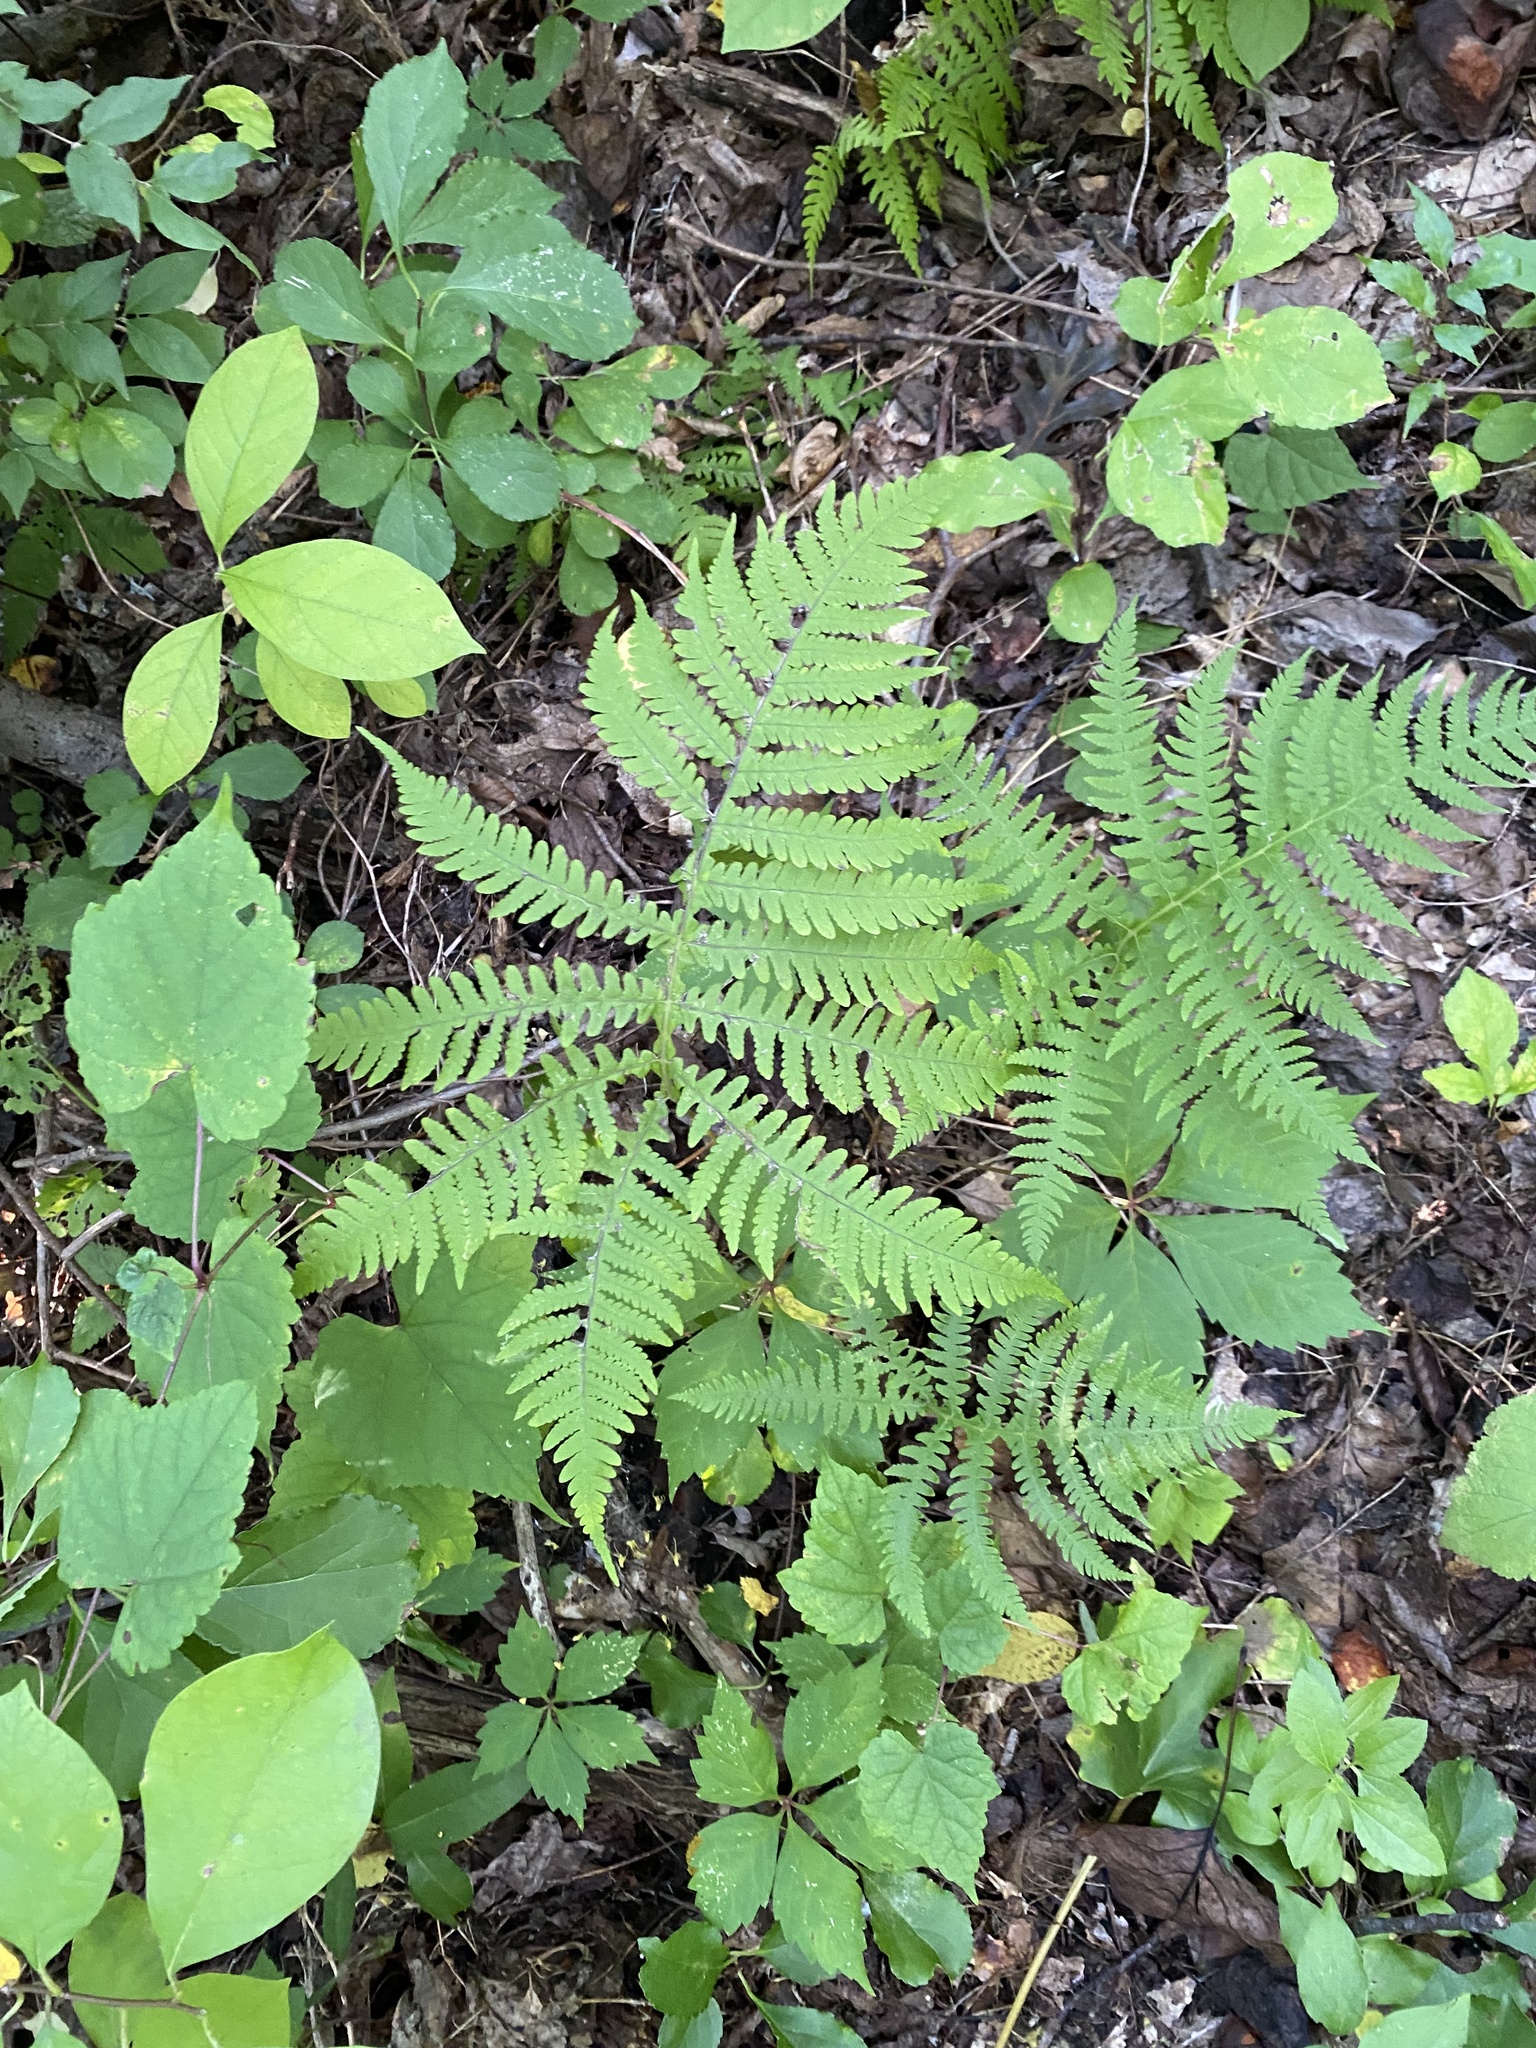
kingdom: Plantae
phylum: Tracheophyta
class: Polypodiopsida
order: Polypodiales
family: Thelypteridaceae
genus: Phegopteris
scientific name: Phegopteris hexagonoptera
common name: Broad beech fern
